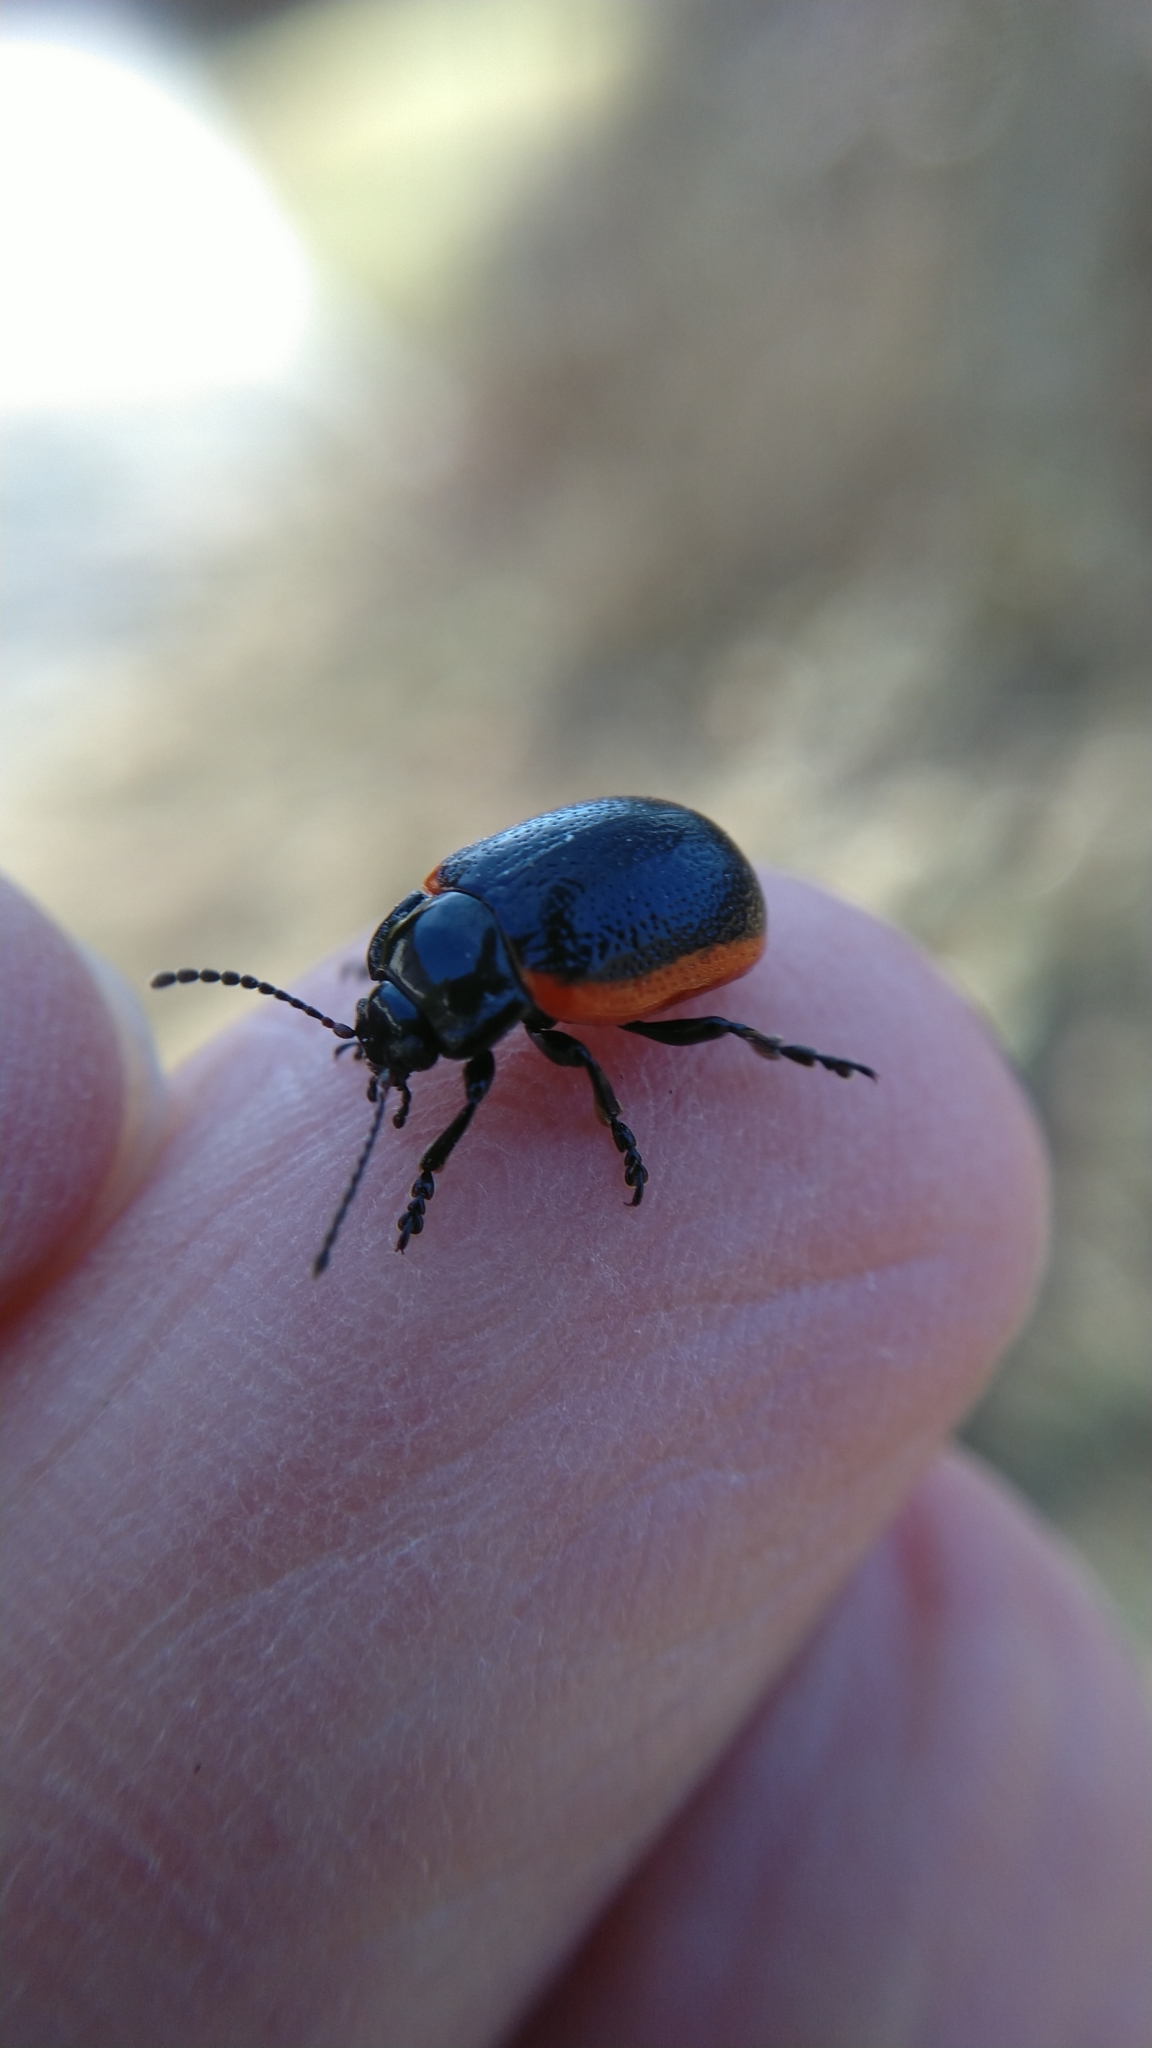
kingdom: Animalia
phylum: Arthropoda
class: Insecta
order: Coleoptera
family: Chrysomelidae
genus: Chrysolina
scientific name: Chrysolina sanguinolenta
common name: Toadflax leaf beetle
